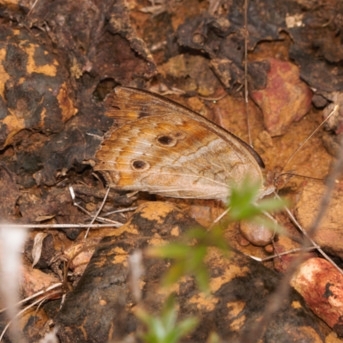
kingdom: Animalia
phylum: Arthropoda
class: Insecta
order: Lepidoptera
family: Nymphalidae
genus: Junonia
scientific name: Junonia
